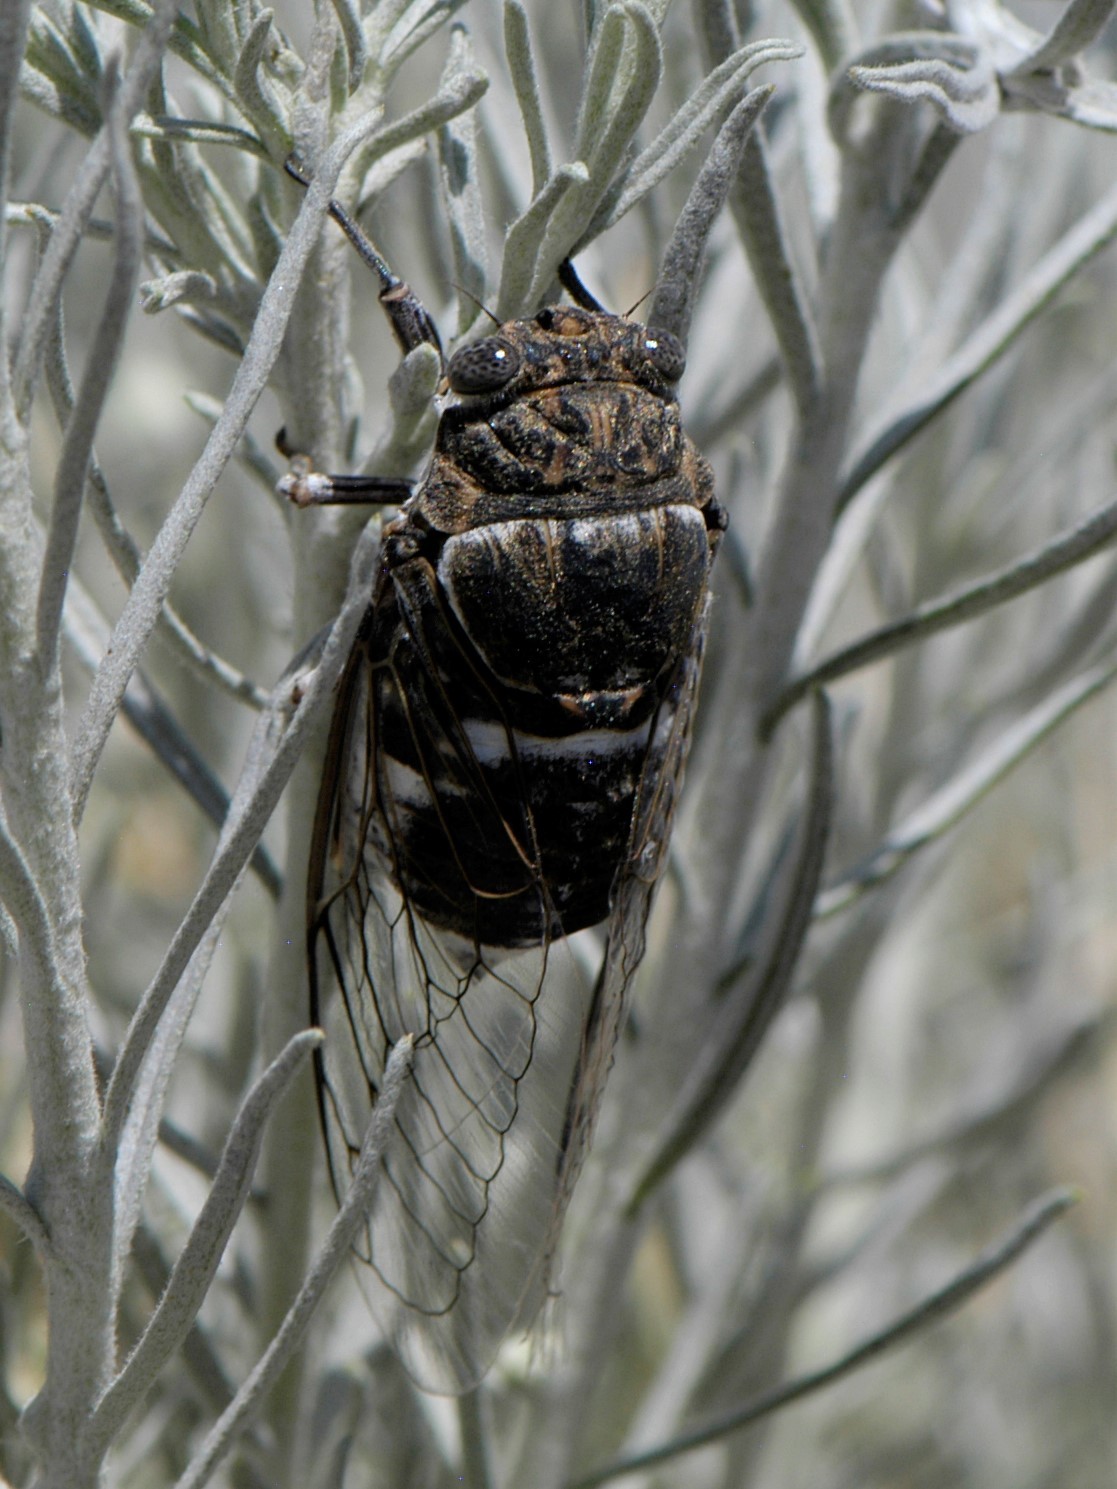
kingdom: Animalia
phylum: Arthropoda
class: Insecta
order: Hemiptera
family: Cicadidae
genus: Cacama
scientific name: Cacama valvata
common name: Cactus dodger
